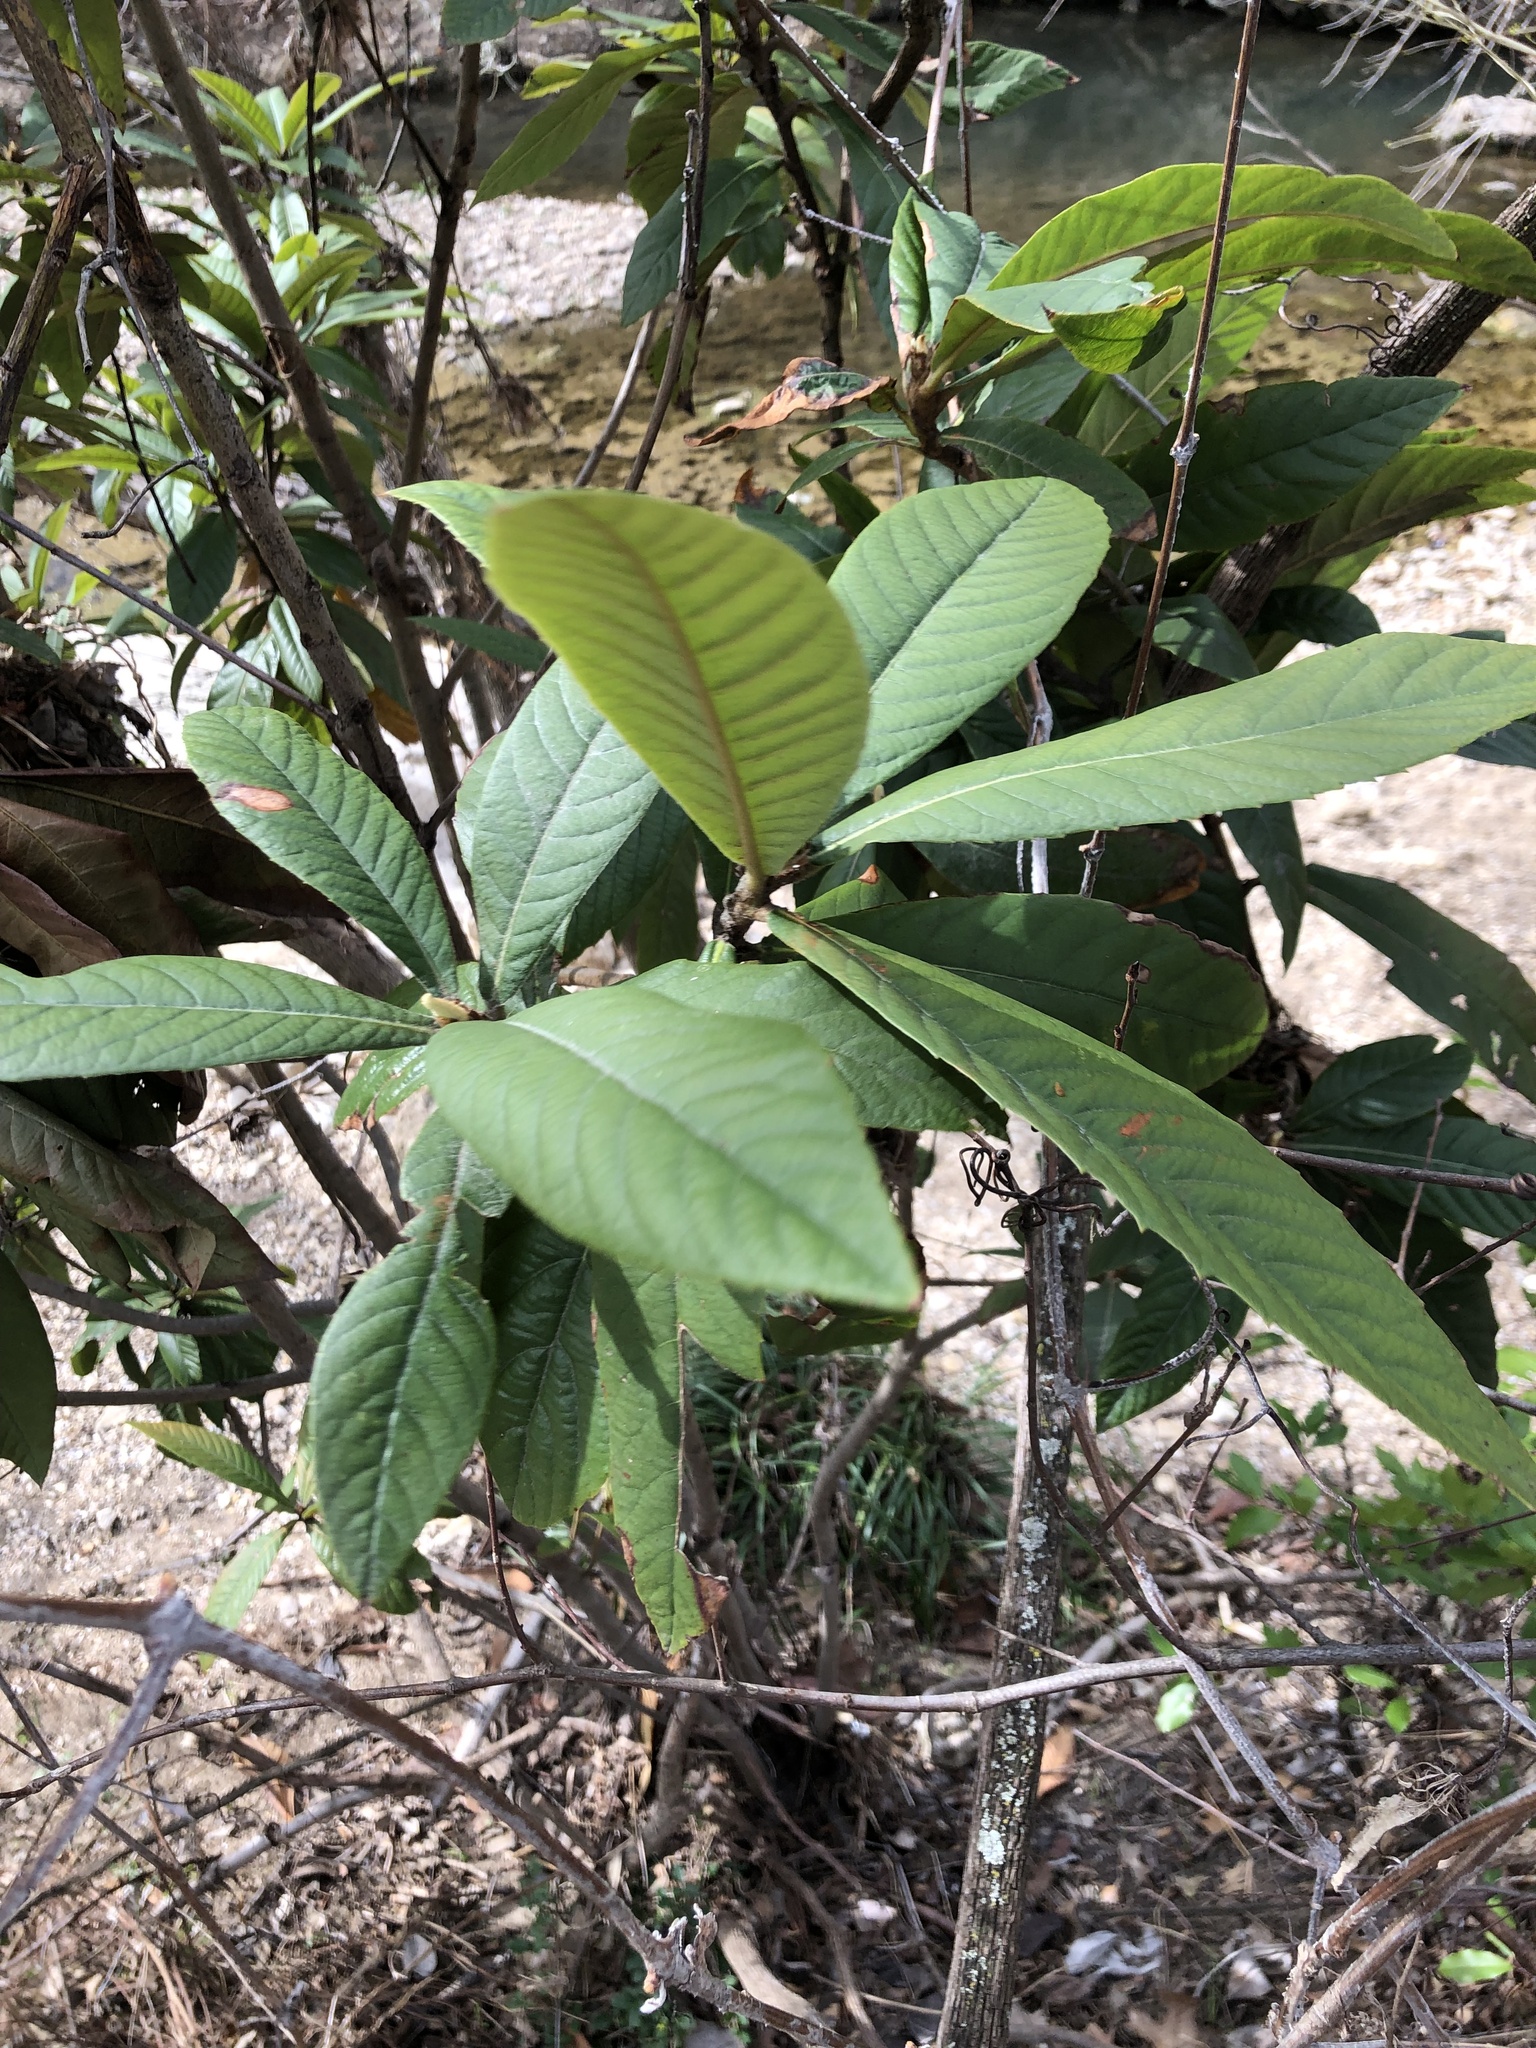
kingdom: Plantae
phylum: Tracheophyta
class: Magnoliopsida
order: Rosales
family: Rosaceae
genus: Rhaphiolepis
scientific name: Rhaphiolepis bibas
